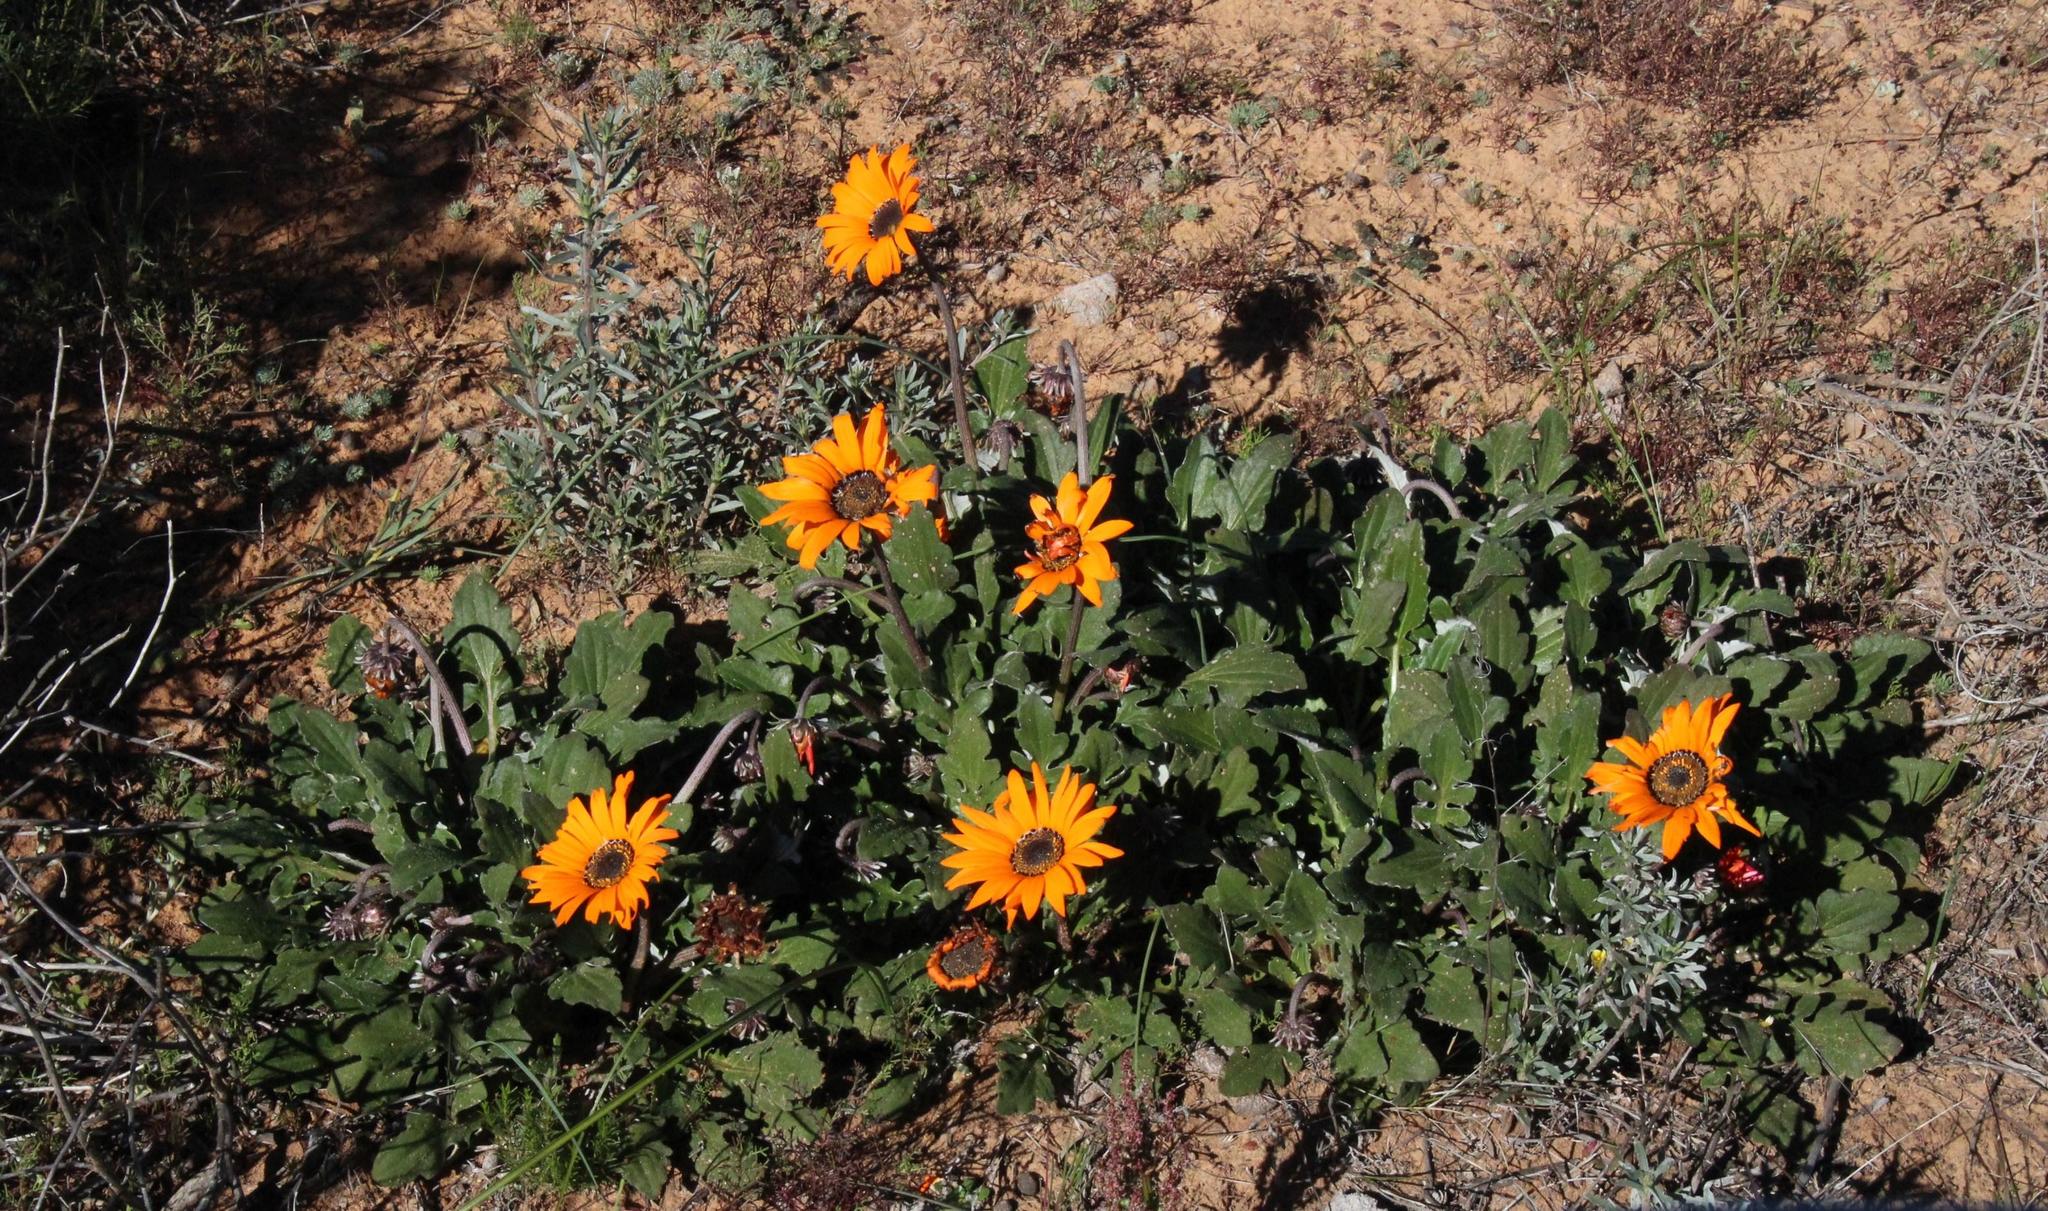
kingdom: Plantae
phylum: Tracheophyta
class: Magnoliopsida
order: Asterales
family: Asteraceae
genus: Arctotis
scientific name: Arctotis acaulis
